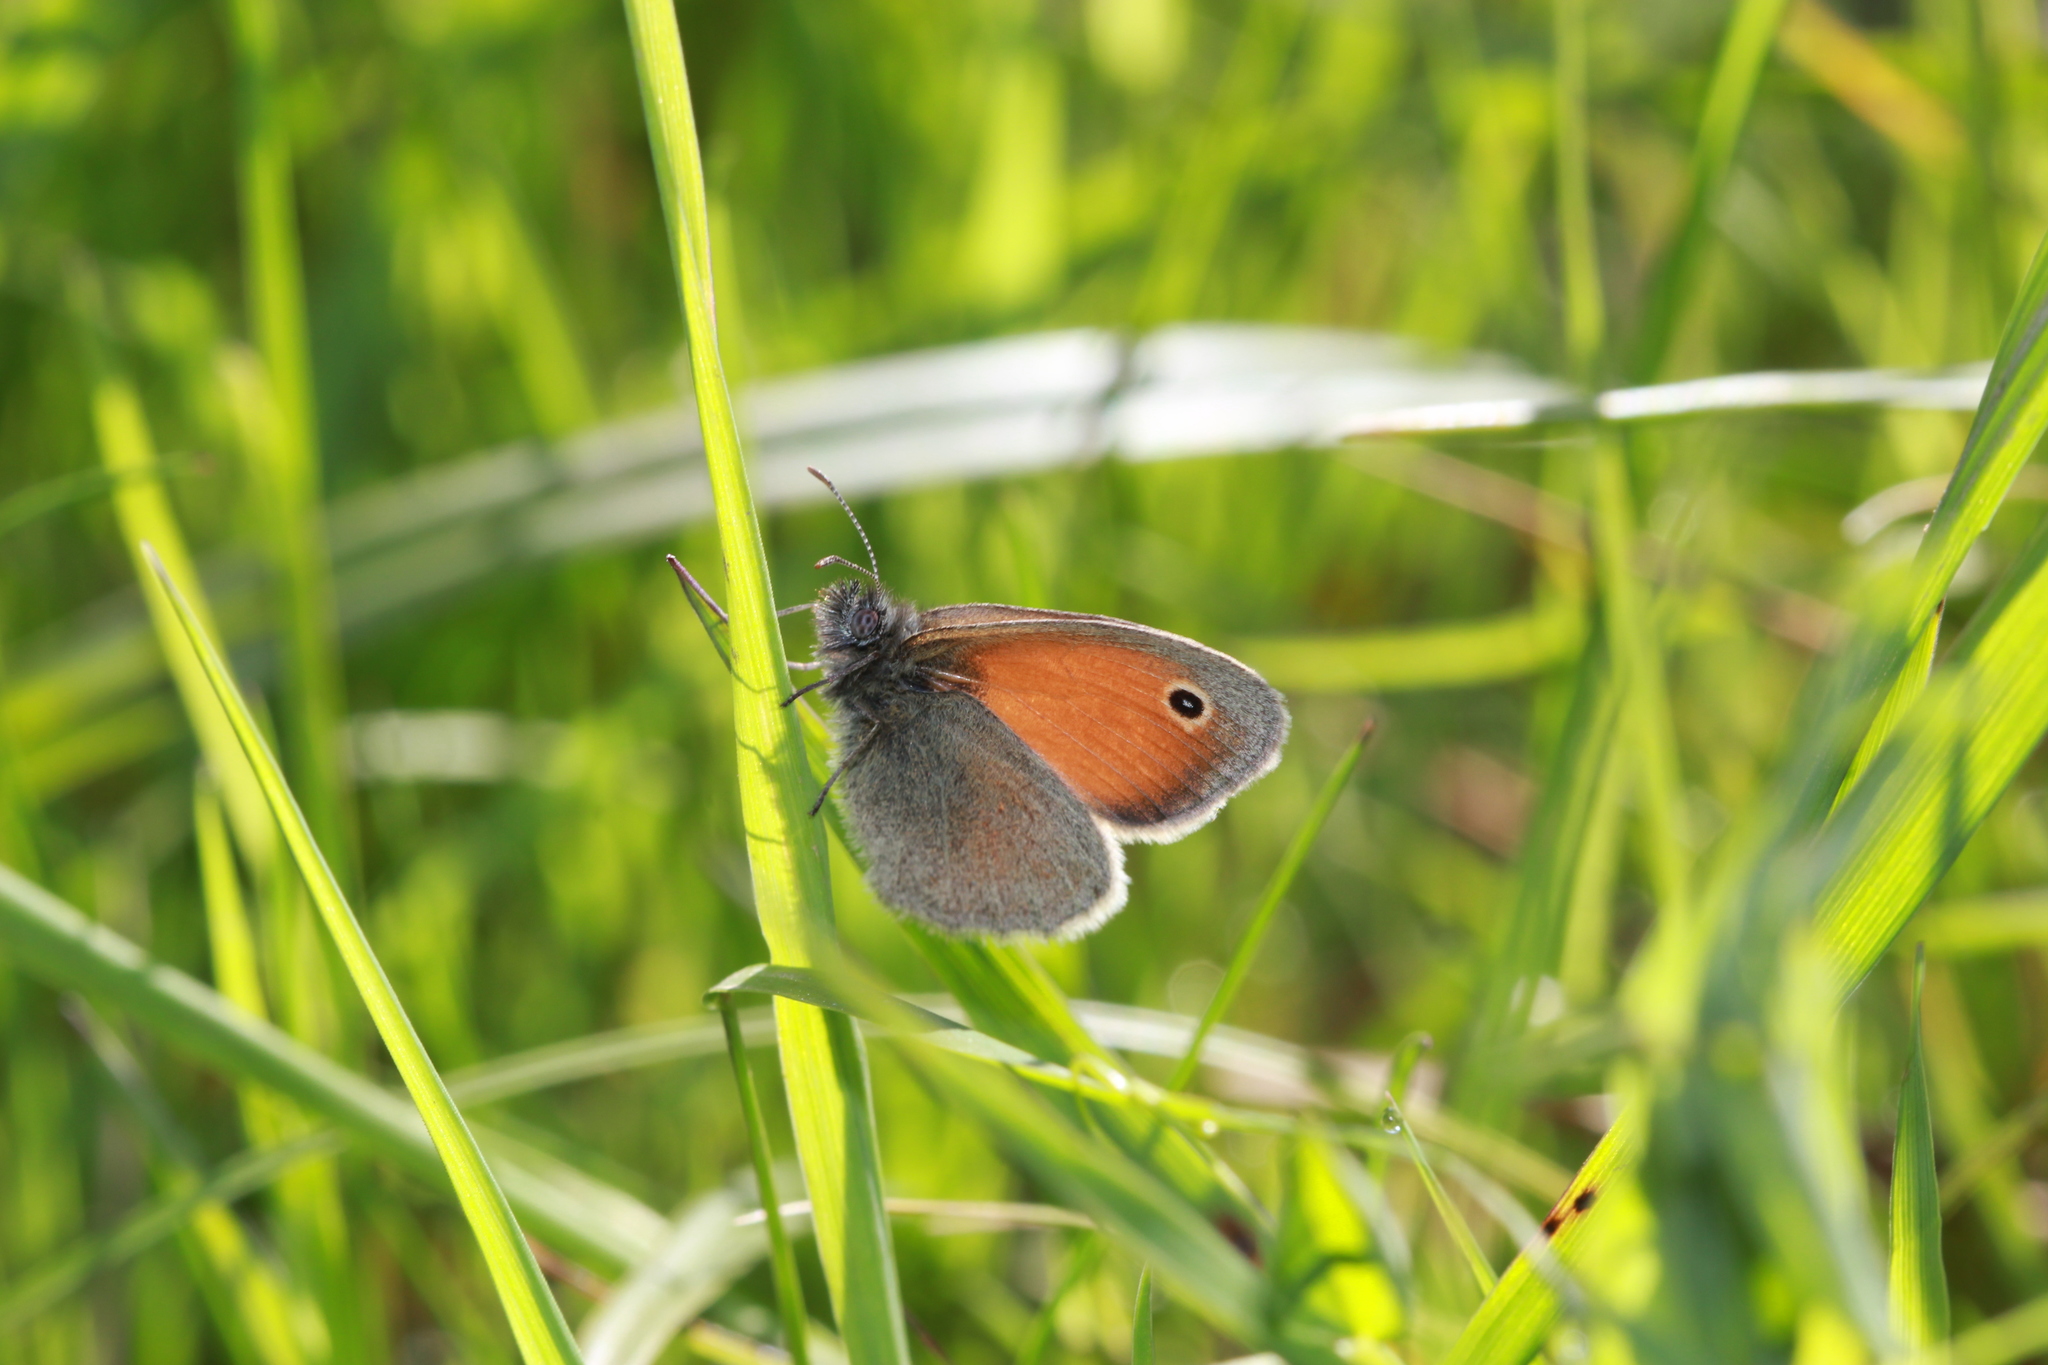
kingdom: Animalia
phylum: Arthropoda
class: Insecta
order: Lepidoptera
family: Nymphalidae
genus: Coenonympha
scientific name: Coenonympha pamphilus
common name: Small heath
